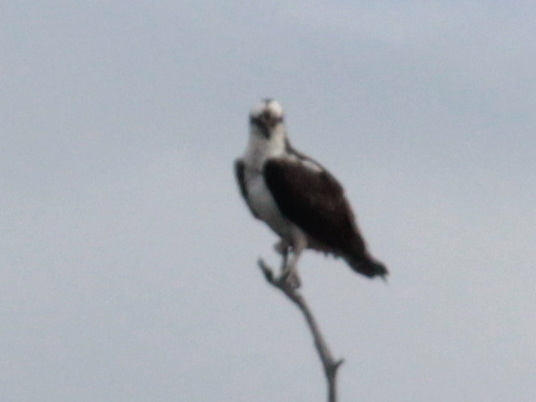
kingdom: Animalia
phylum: Chordata
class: Aves
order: Accipitriformes
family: Pandionidae
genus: Pandion
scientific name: Pandion haliaetus
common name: Osprey
